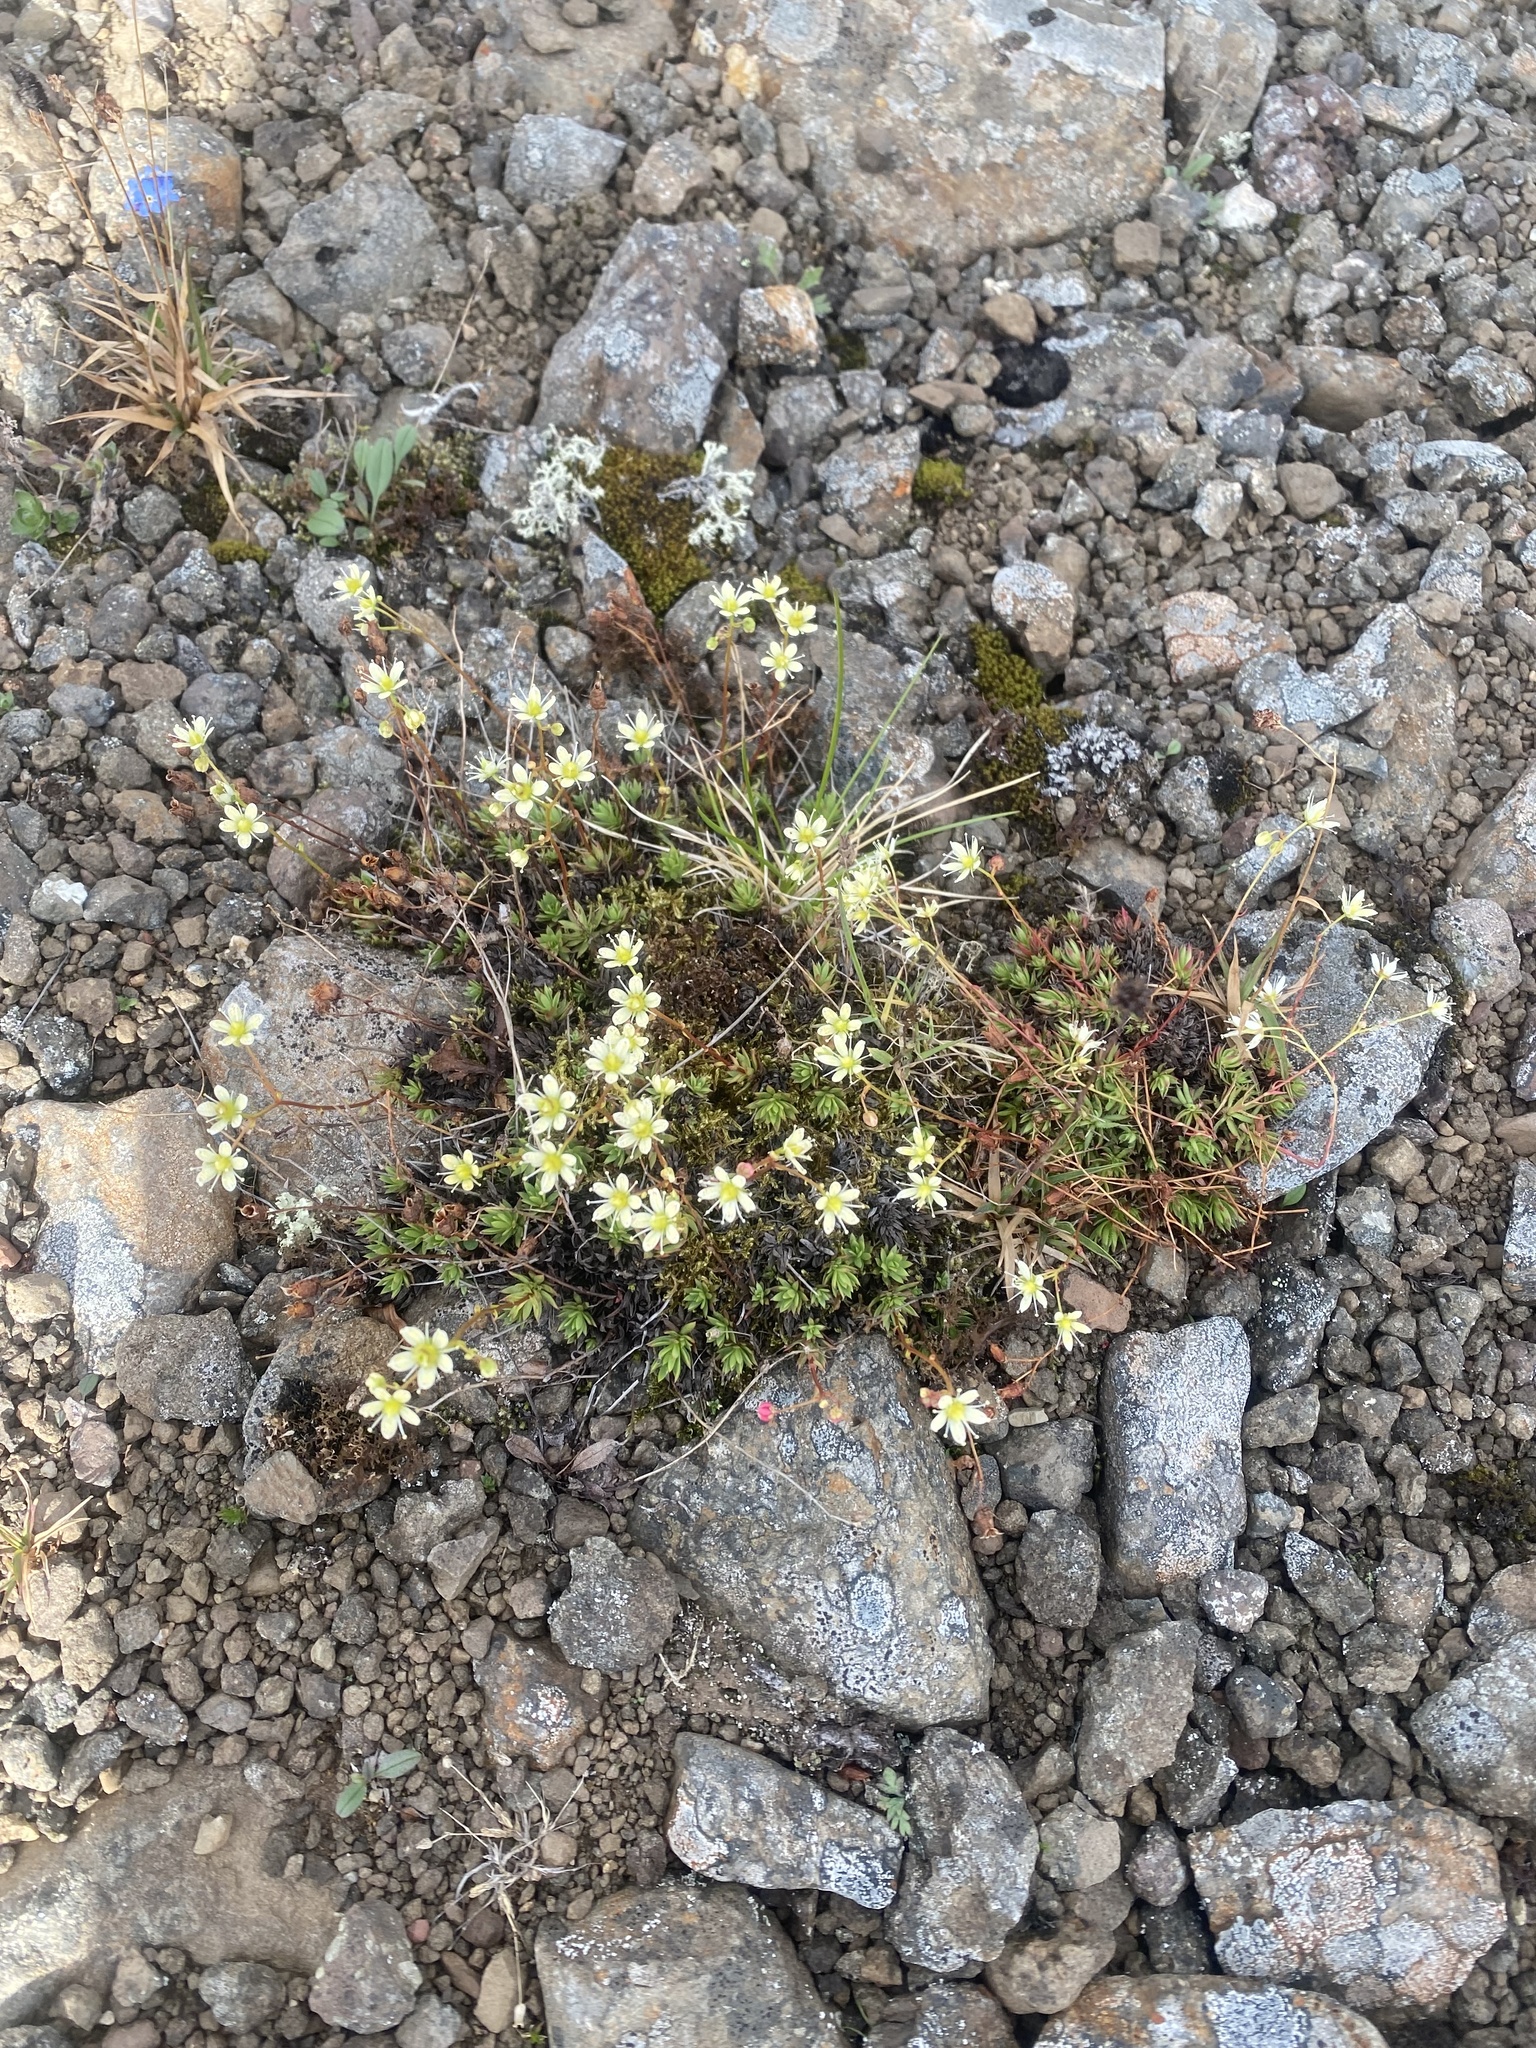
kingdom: Plantae
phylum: Tracheophyta
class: Magnoliopsida
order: Saxifragales
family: Saxifragaceae
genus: Saxifraga
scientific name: Saxifraga
